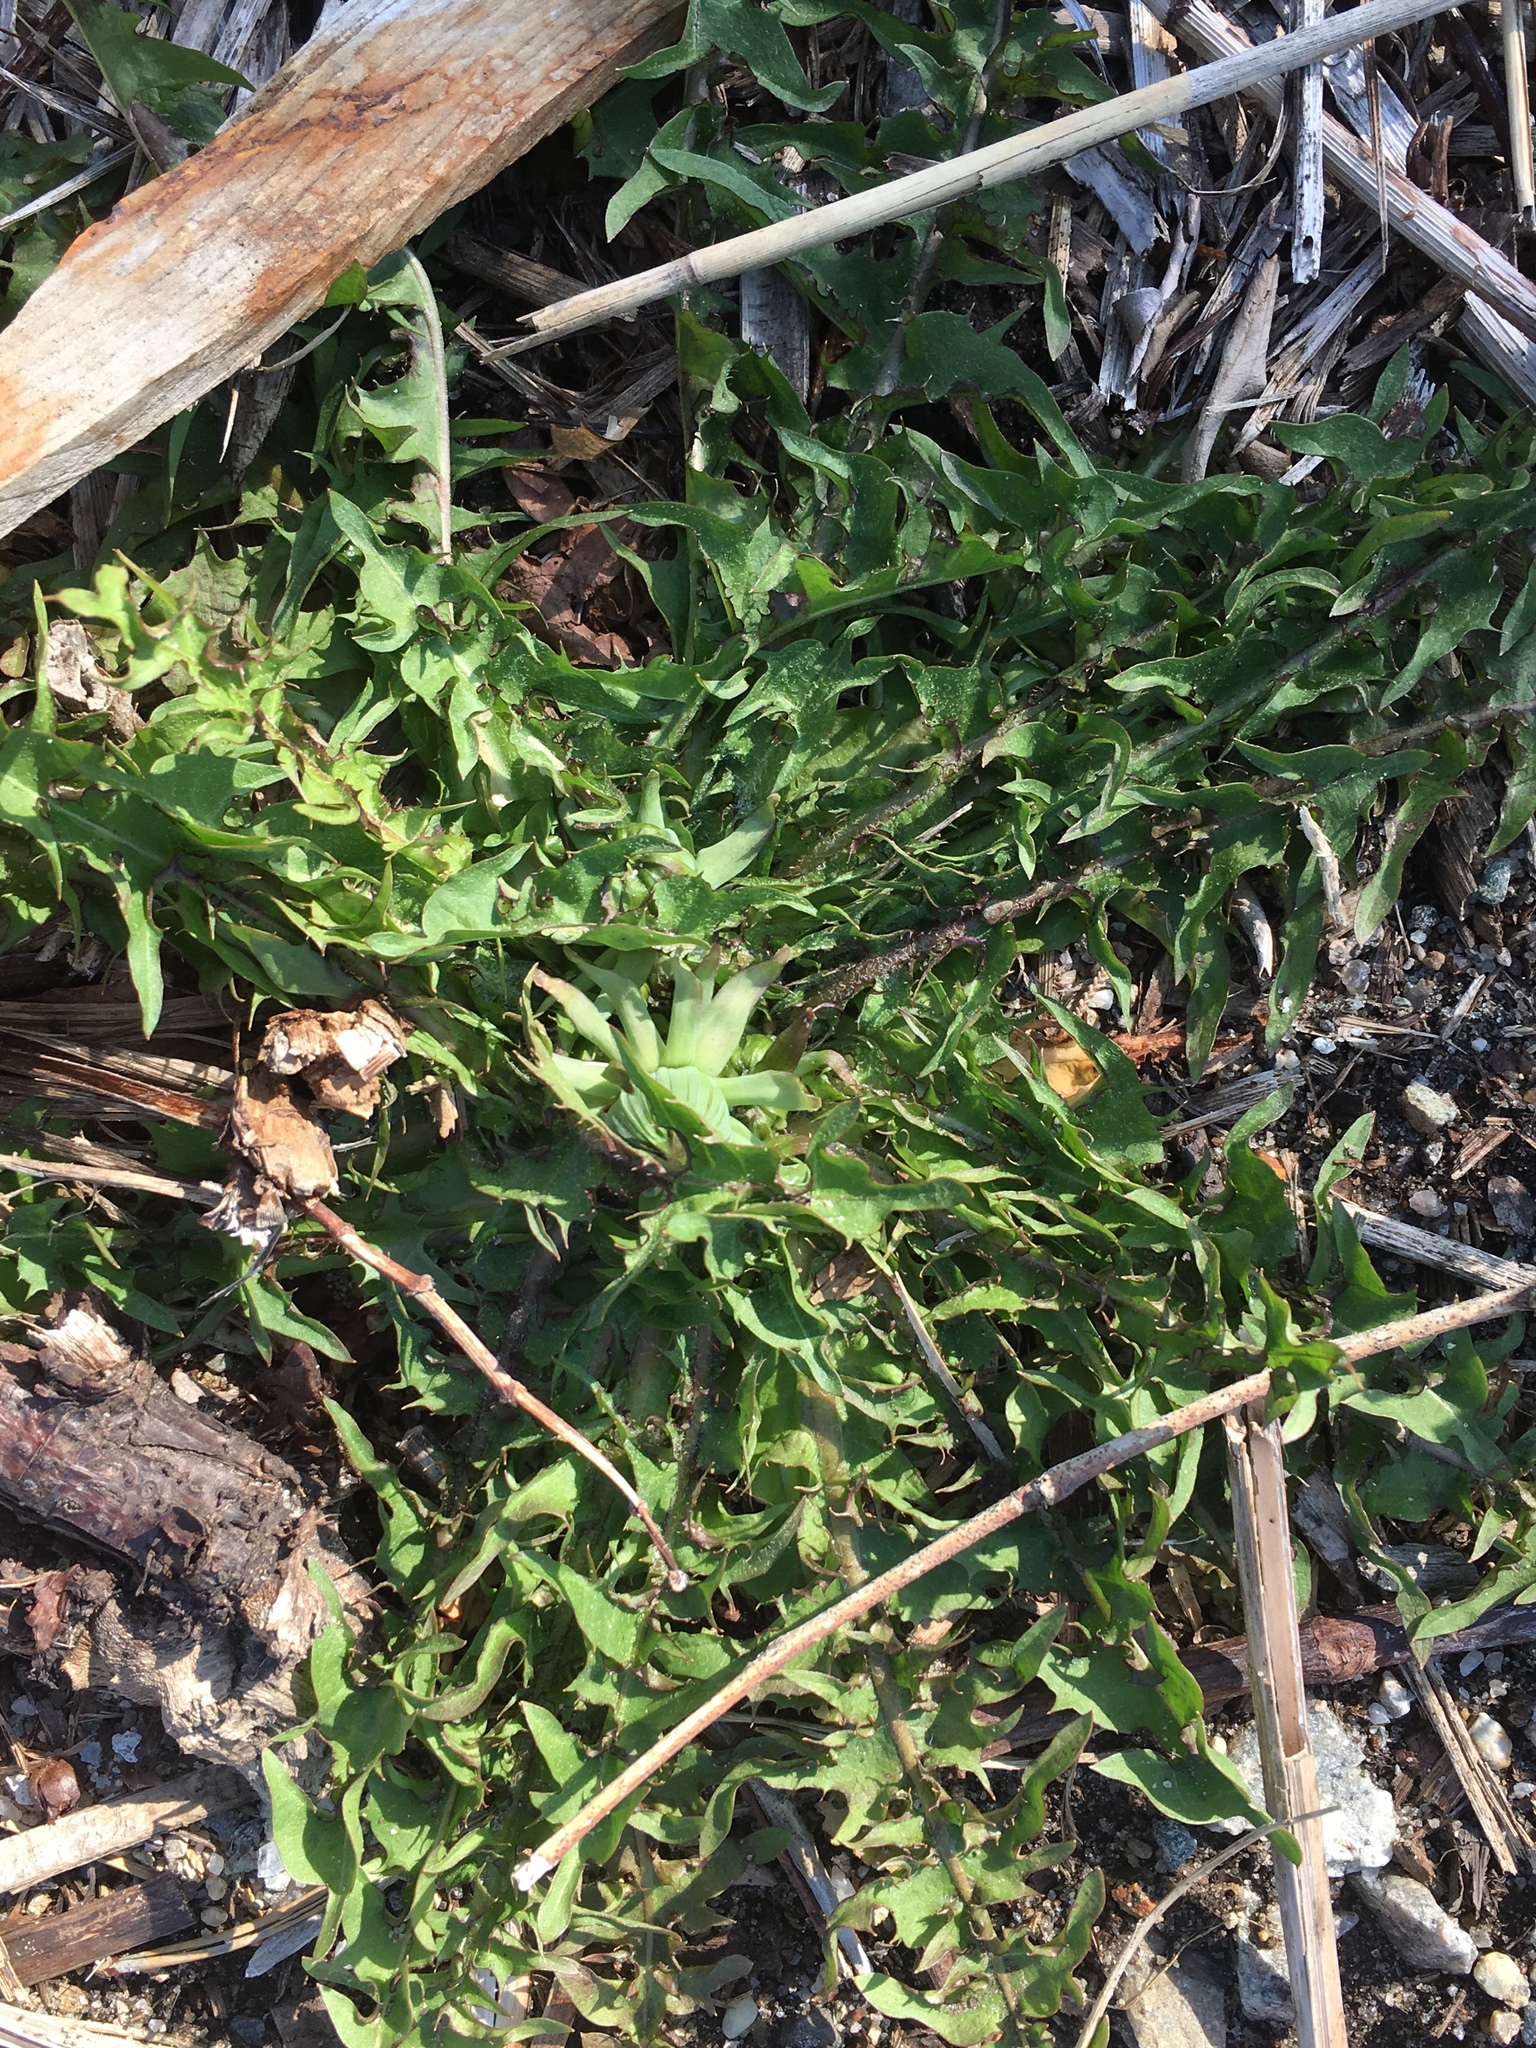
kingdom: Plantae
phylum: Tracheophyta
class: Magnoliopsida
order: Asterales
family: Asteraceae
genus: Taraxacum
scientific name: Taraxacum officinale
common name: Common dandelion
